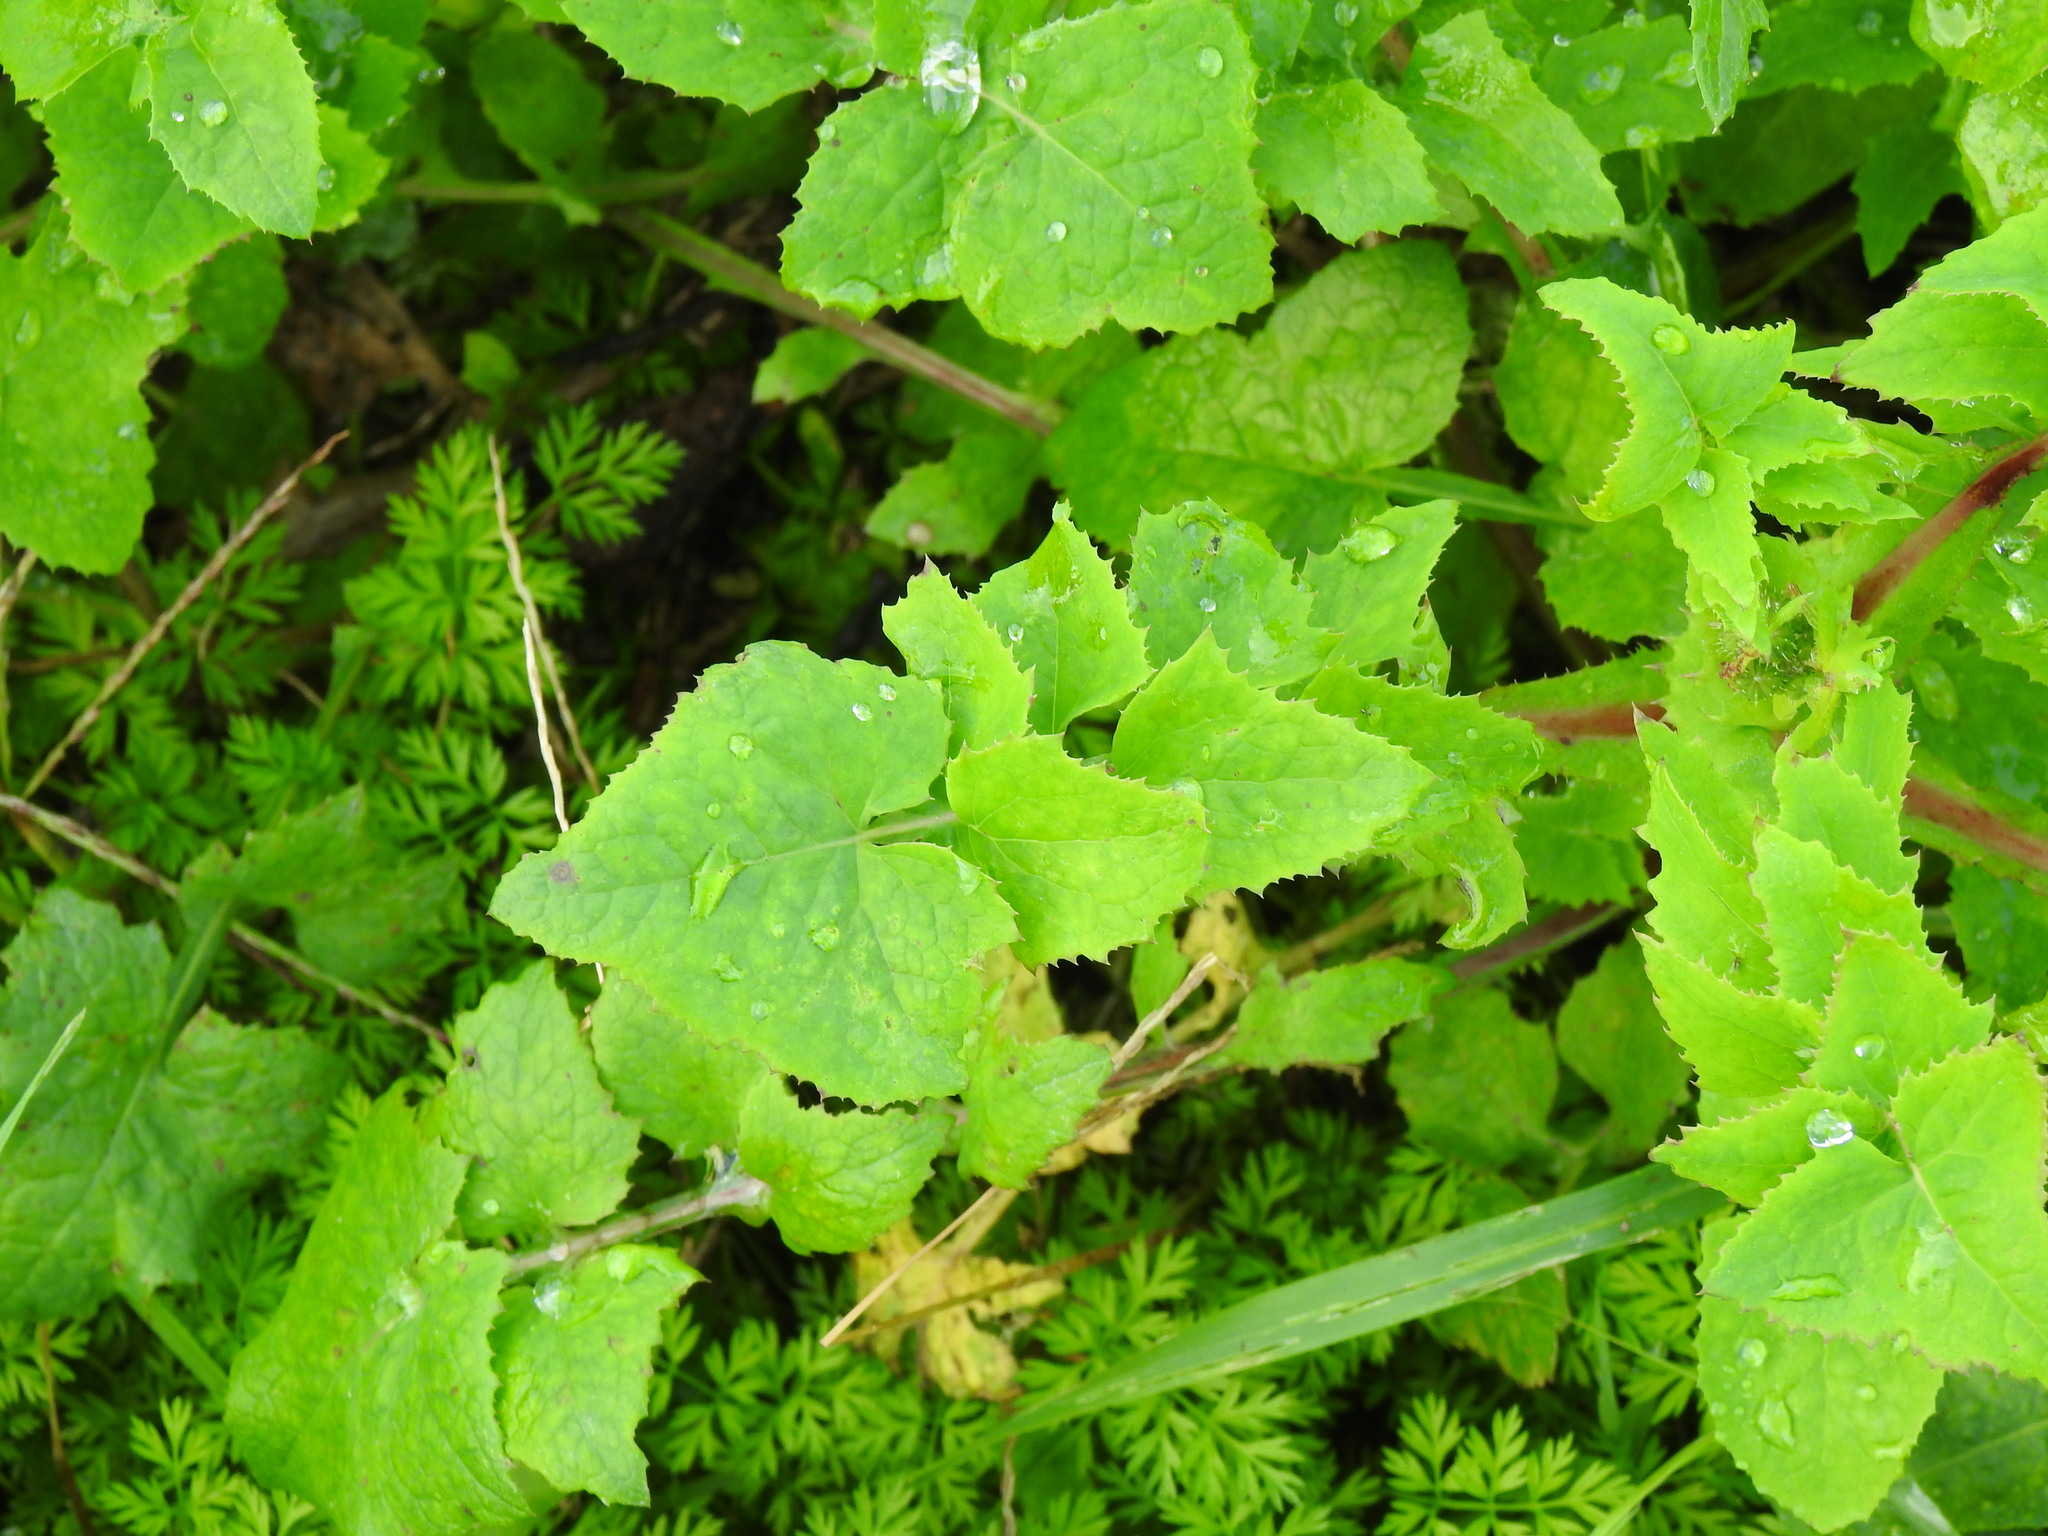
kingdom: Plantae
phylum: Tracheophyta
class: Magnoliopsida
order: Asterales
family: Asteraceae
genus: Sonchus
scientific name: Sonchus oleraceus
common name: Common sowthistle
